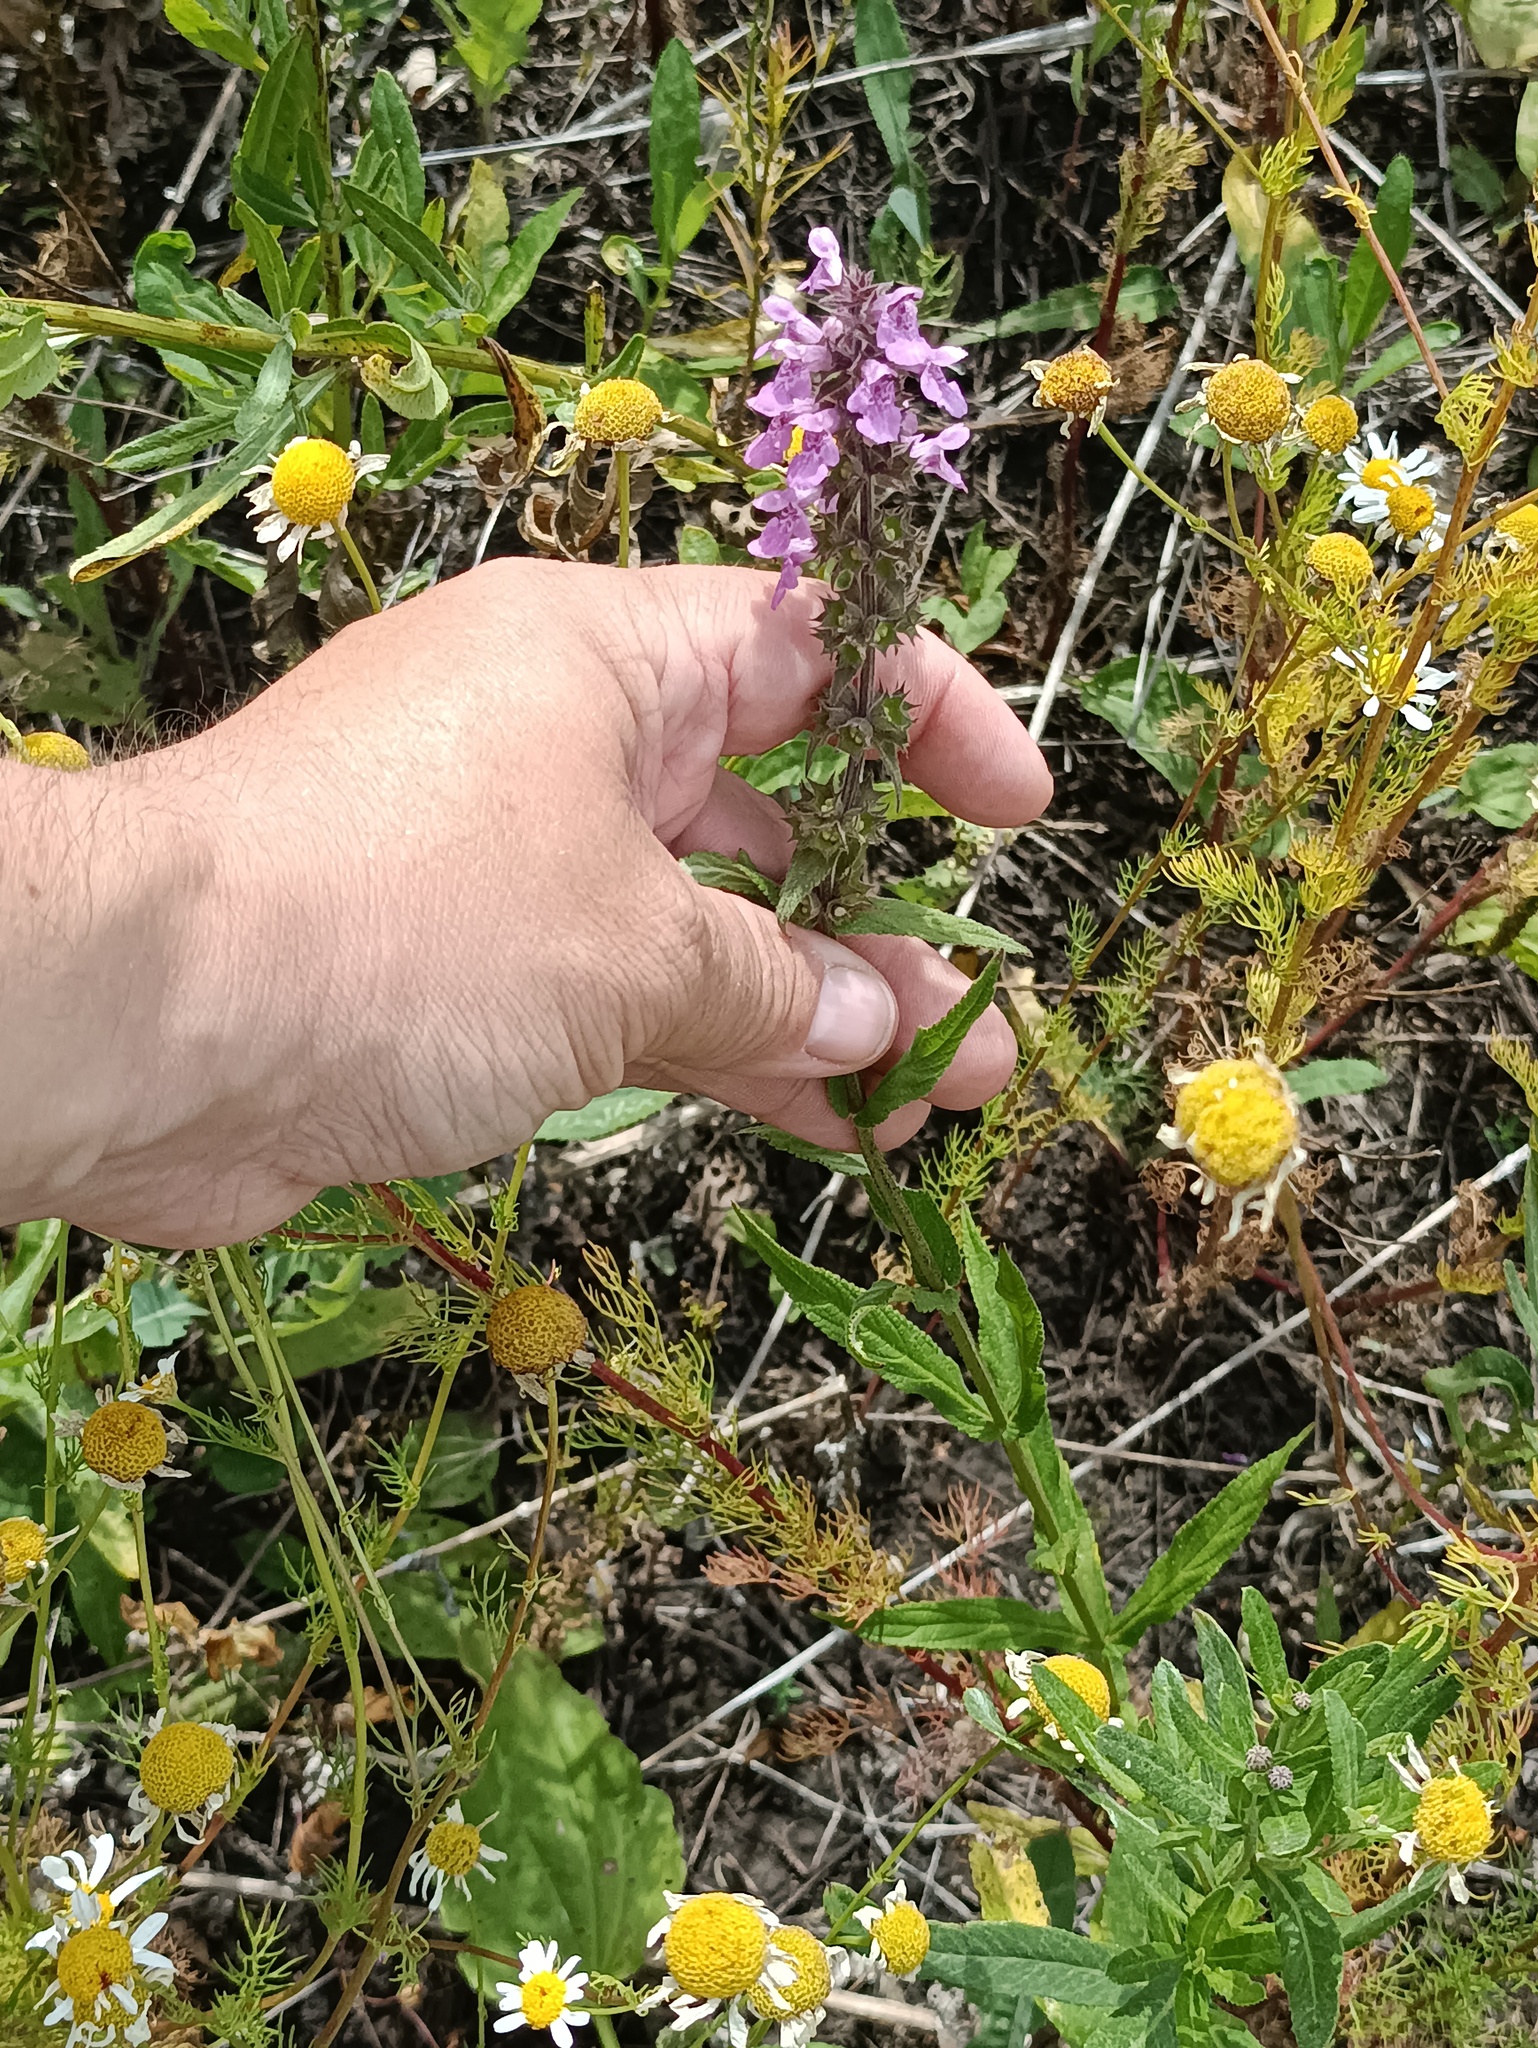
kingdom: Plantae
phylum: Tracheophyta
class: Magnoliopsida
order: Lamiales
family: Lamiaceae
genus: Stachys
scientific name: Stachys palustris
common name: Marsh woundwort
